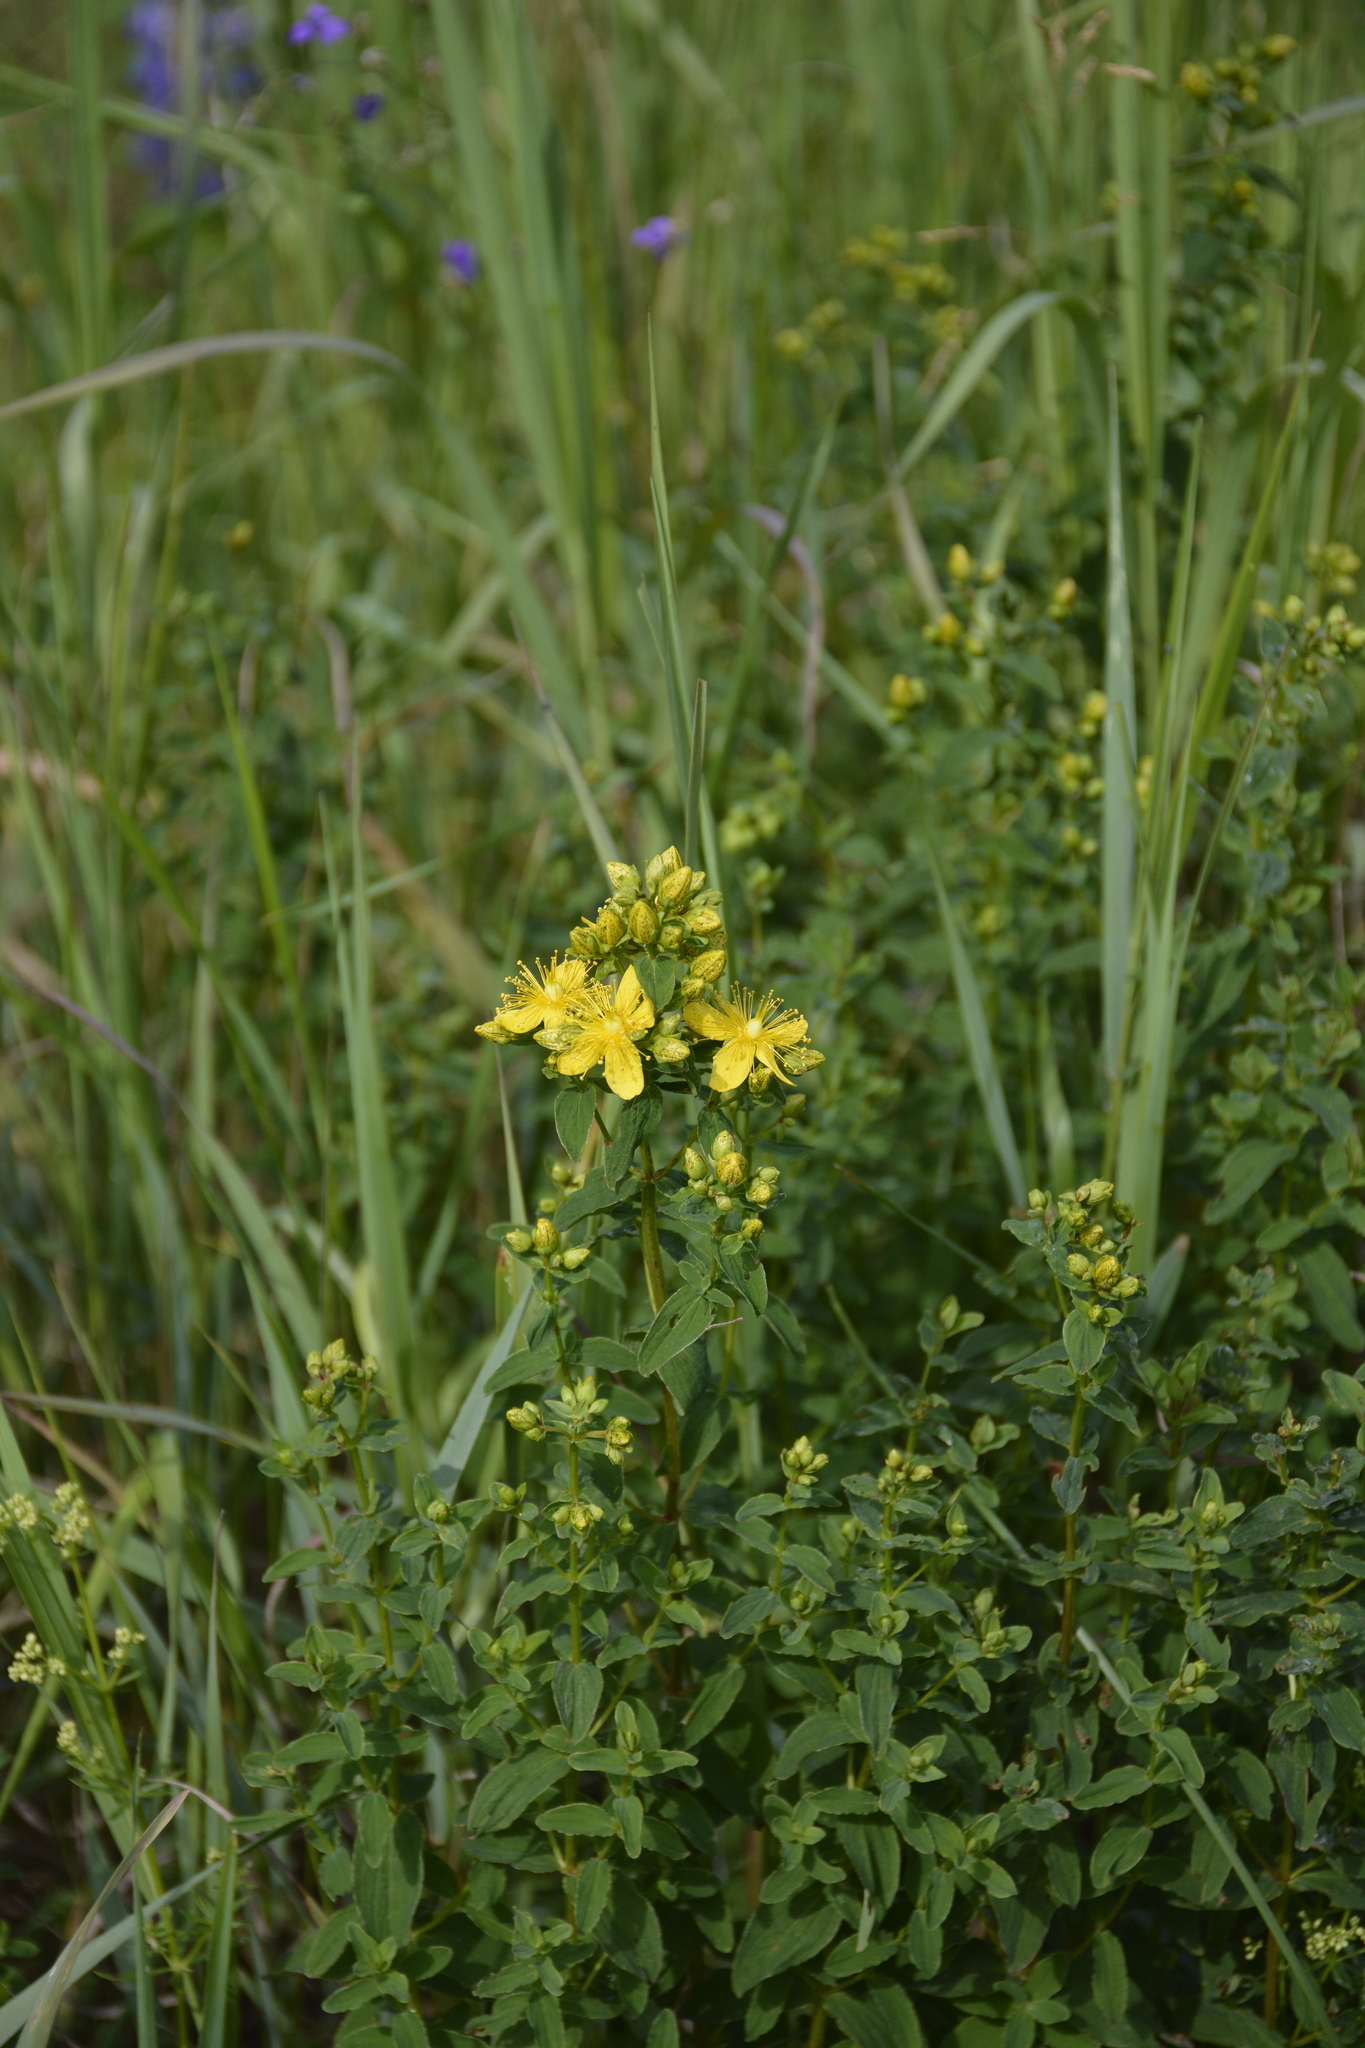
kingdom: Plantae
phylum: Tracheophyta
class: Magnoliopsida
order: Malpighiales
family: Hypericaceae
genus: Hypericum
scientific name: Hypericum maculatum
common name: Imperforate st. john's-wort
